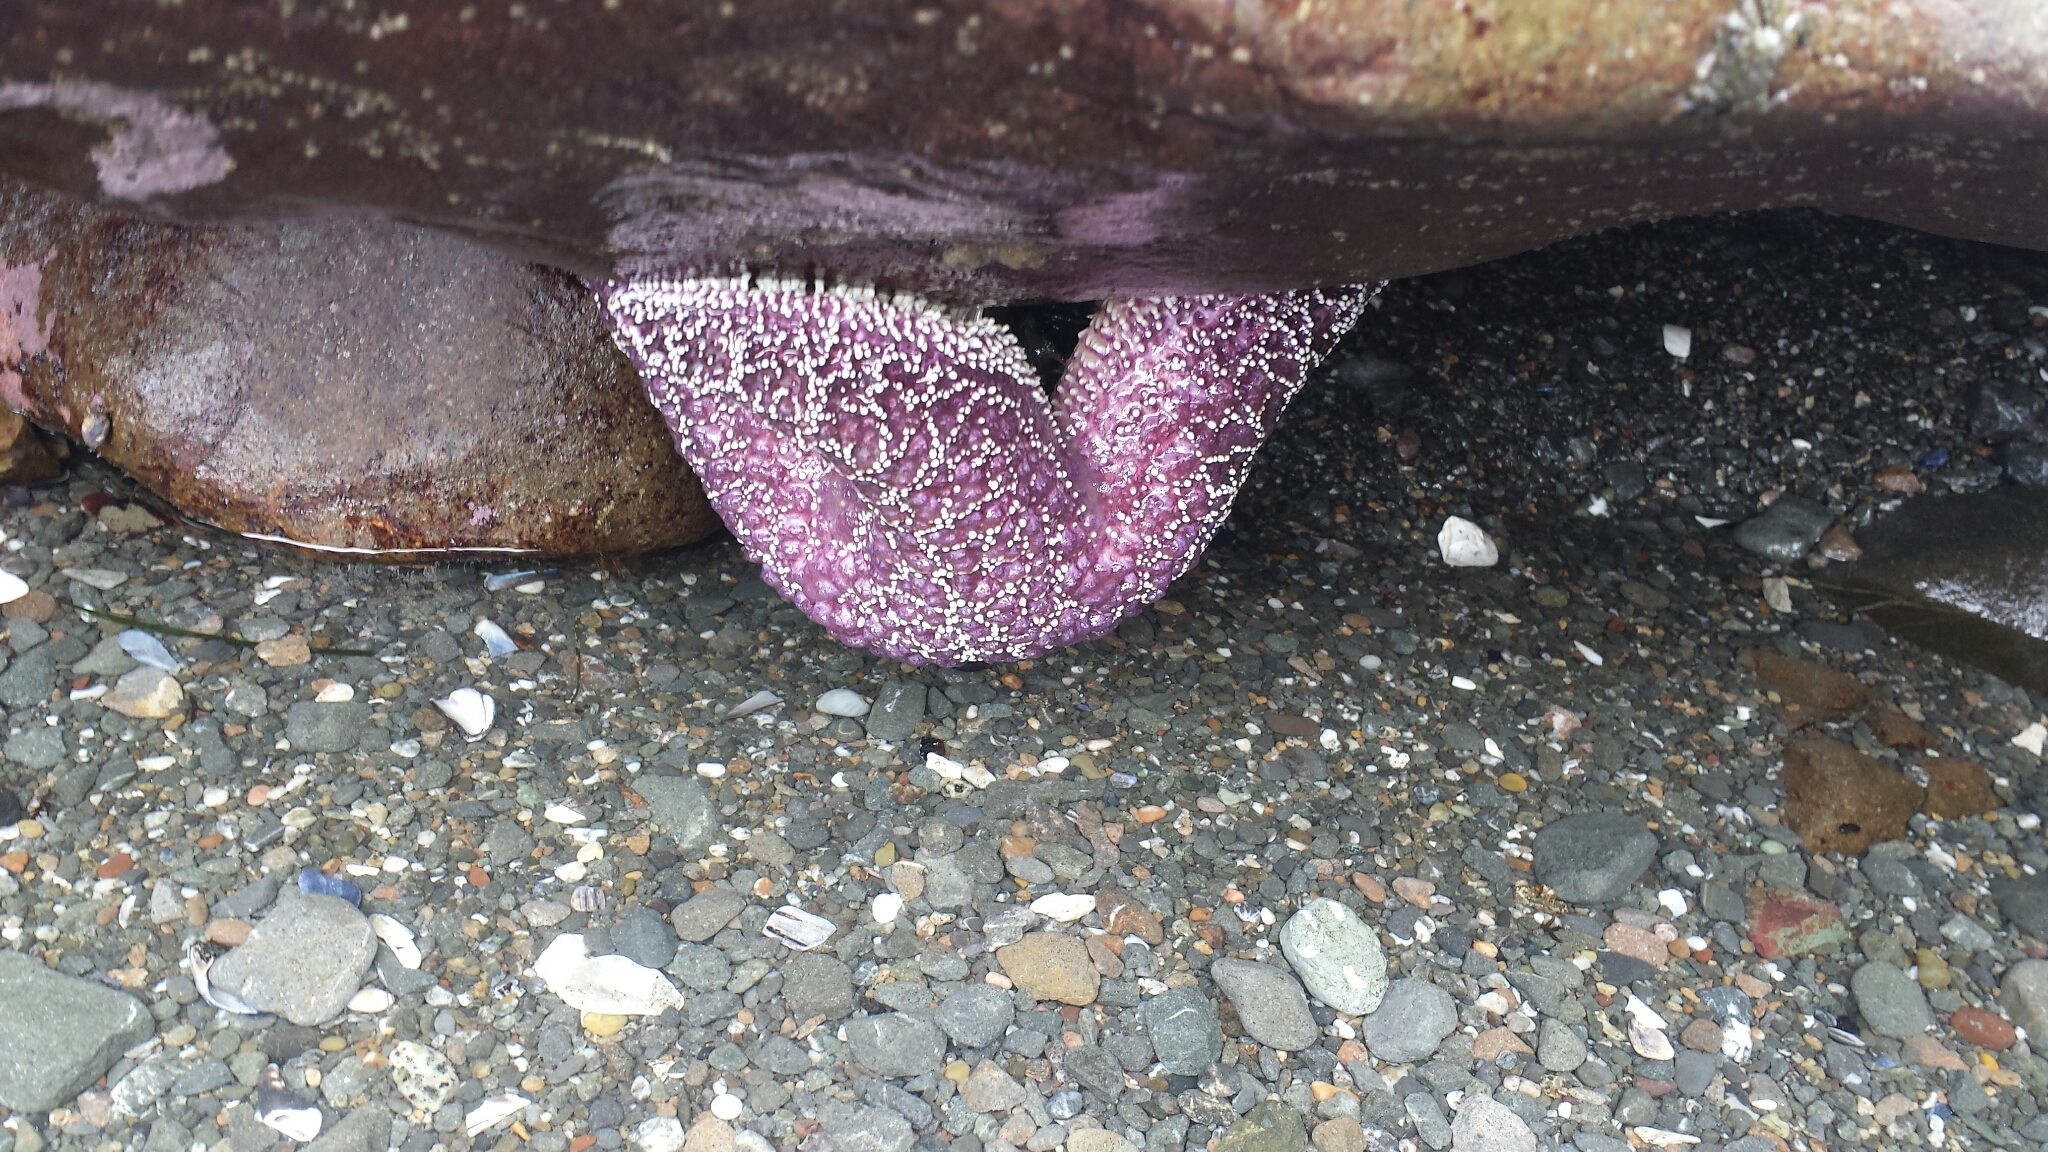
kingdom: Animalia
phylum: Echinodermata
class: Asteroidea
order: Forcipulatida
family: Asteriidae
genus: Pisaster
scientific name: Pisaster ochraceus
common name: Ochre stars
